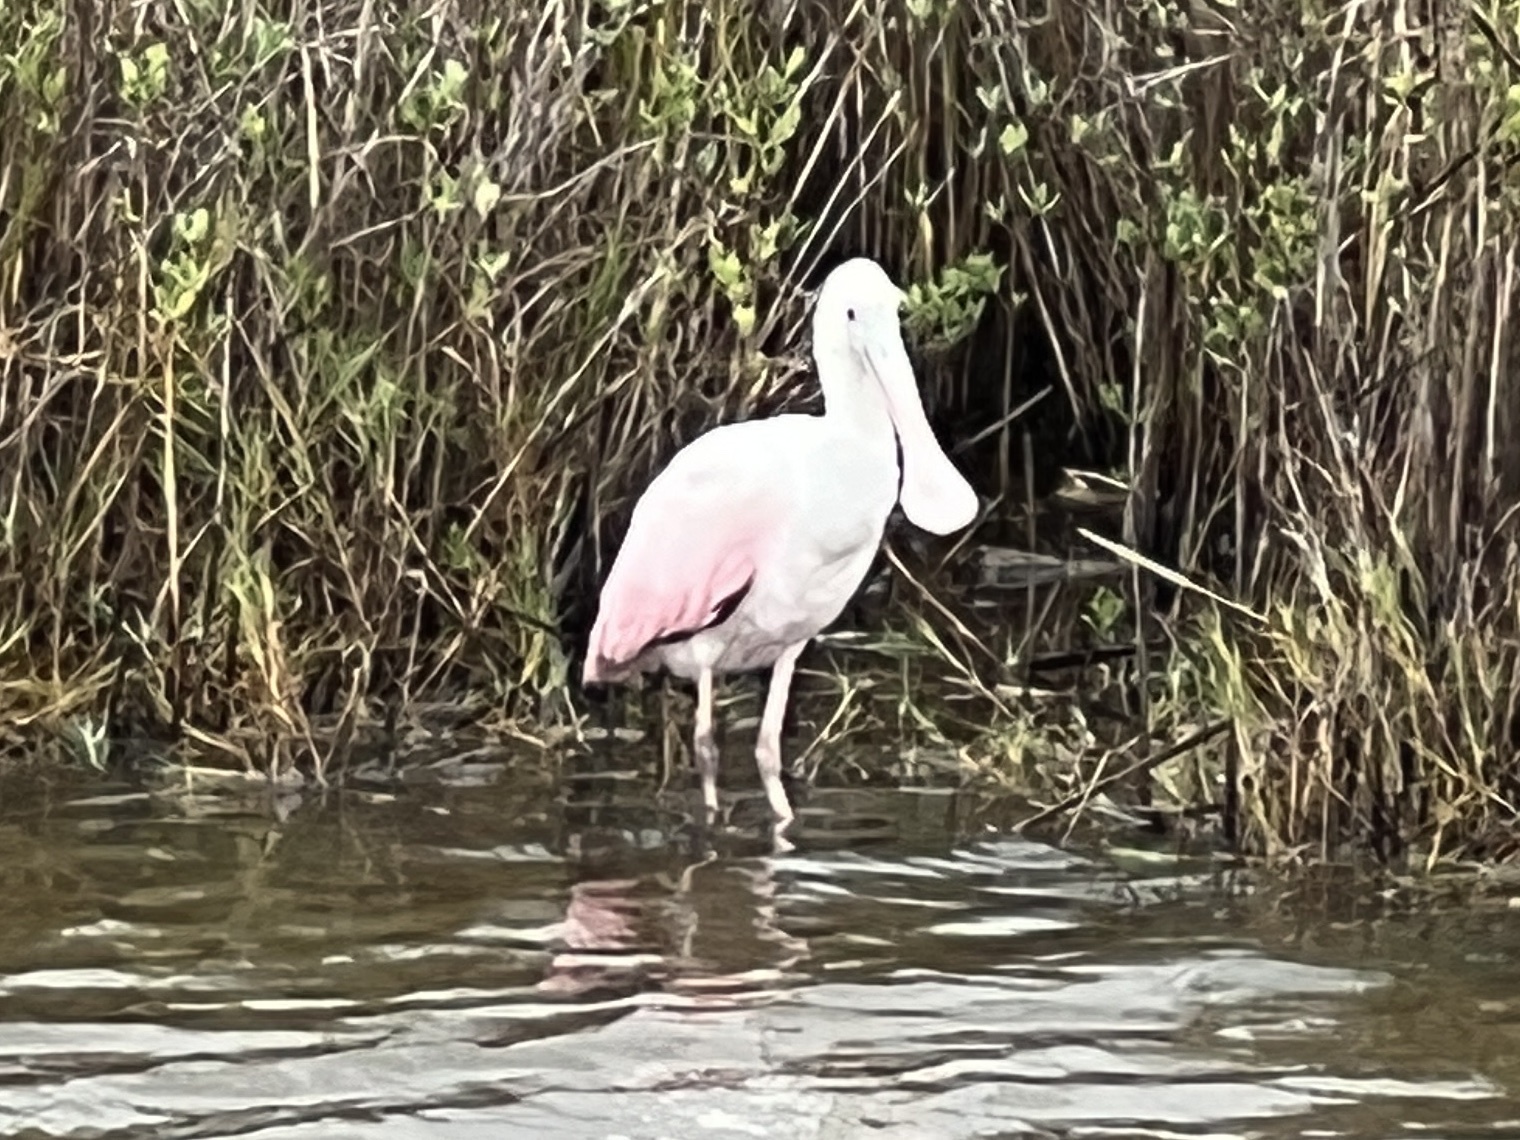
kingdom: Animalia
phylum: Chordata
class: Aves
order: Pelecaniformes
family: Threskiornithidae
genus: Platalea
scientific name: Platalea ajaja
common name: Roseate spoonbill
